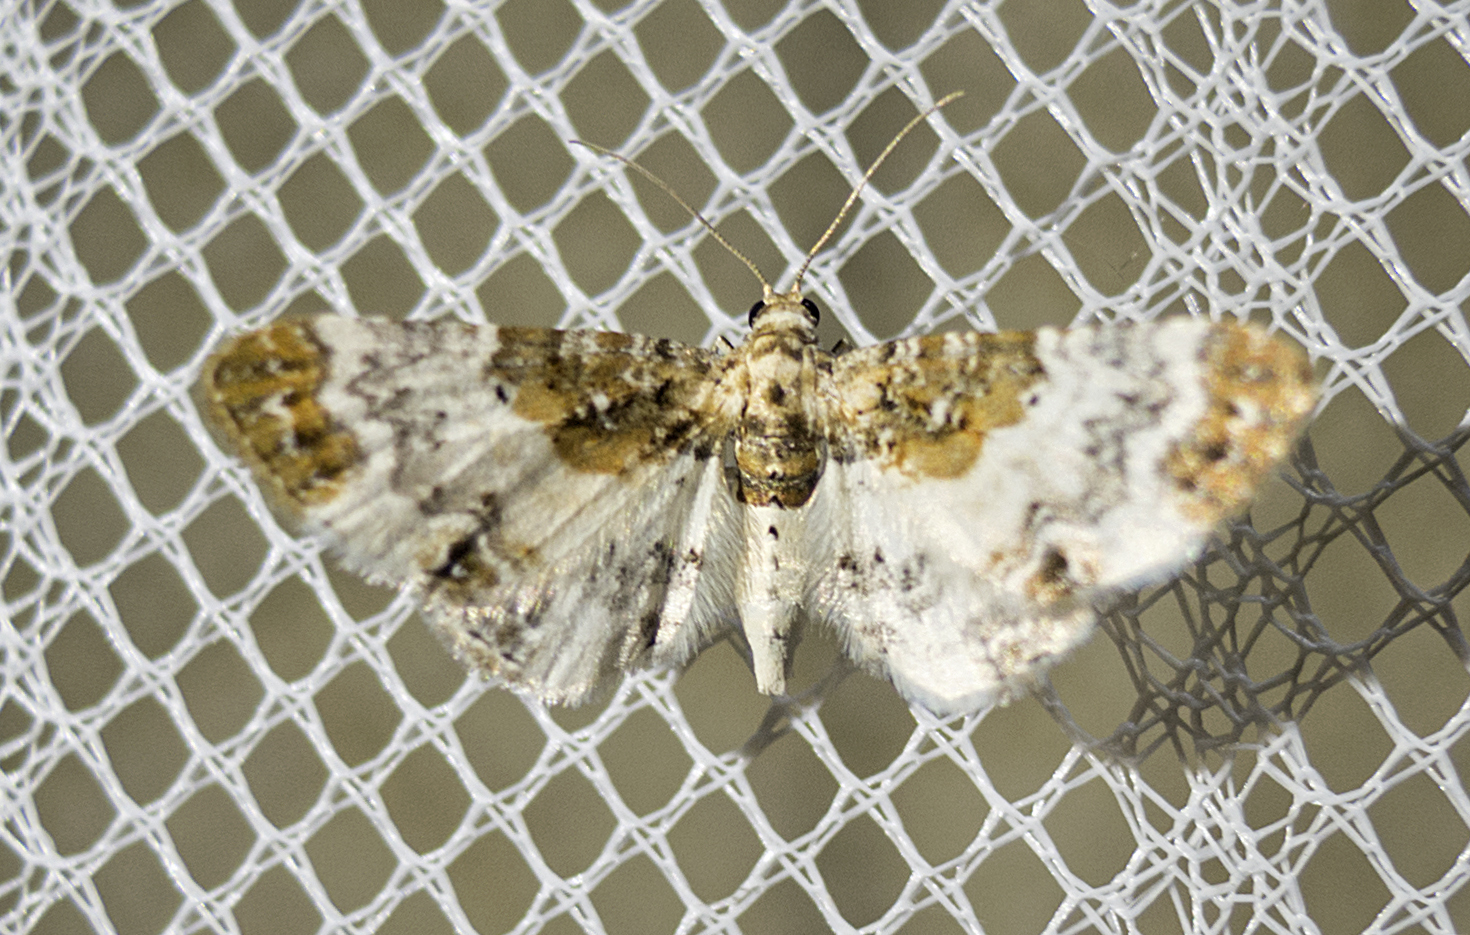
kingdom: Animalia
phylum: Arthropoda
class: Insecta
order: Lepidoptera
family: Geometridae
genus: Eupithecia
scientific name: Eupithecia breviculata
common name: Rusty-shouldered pug
